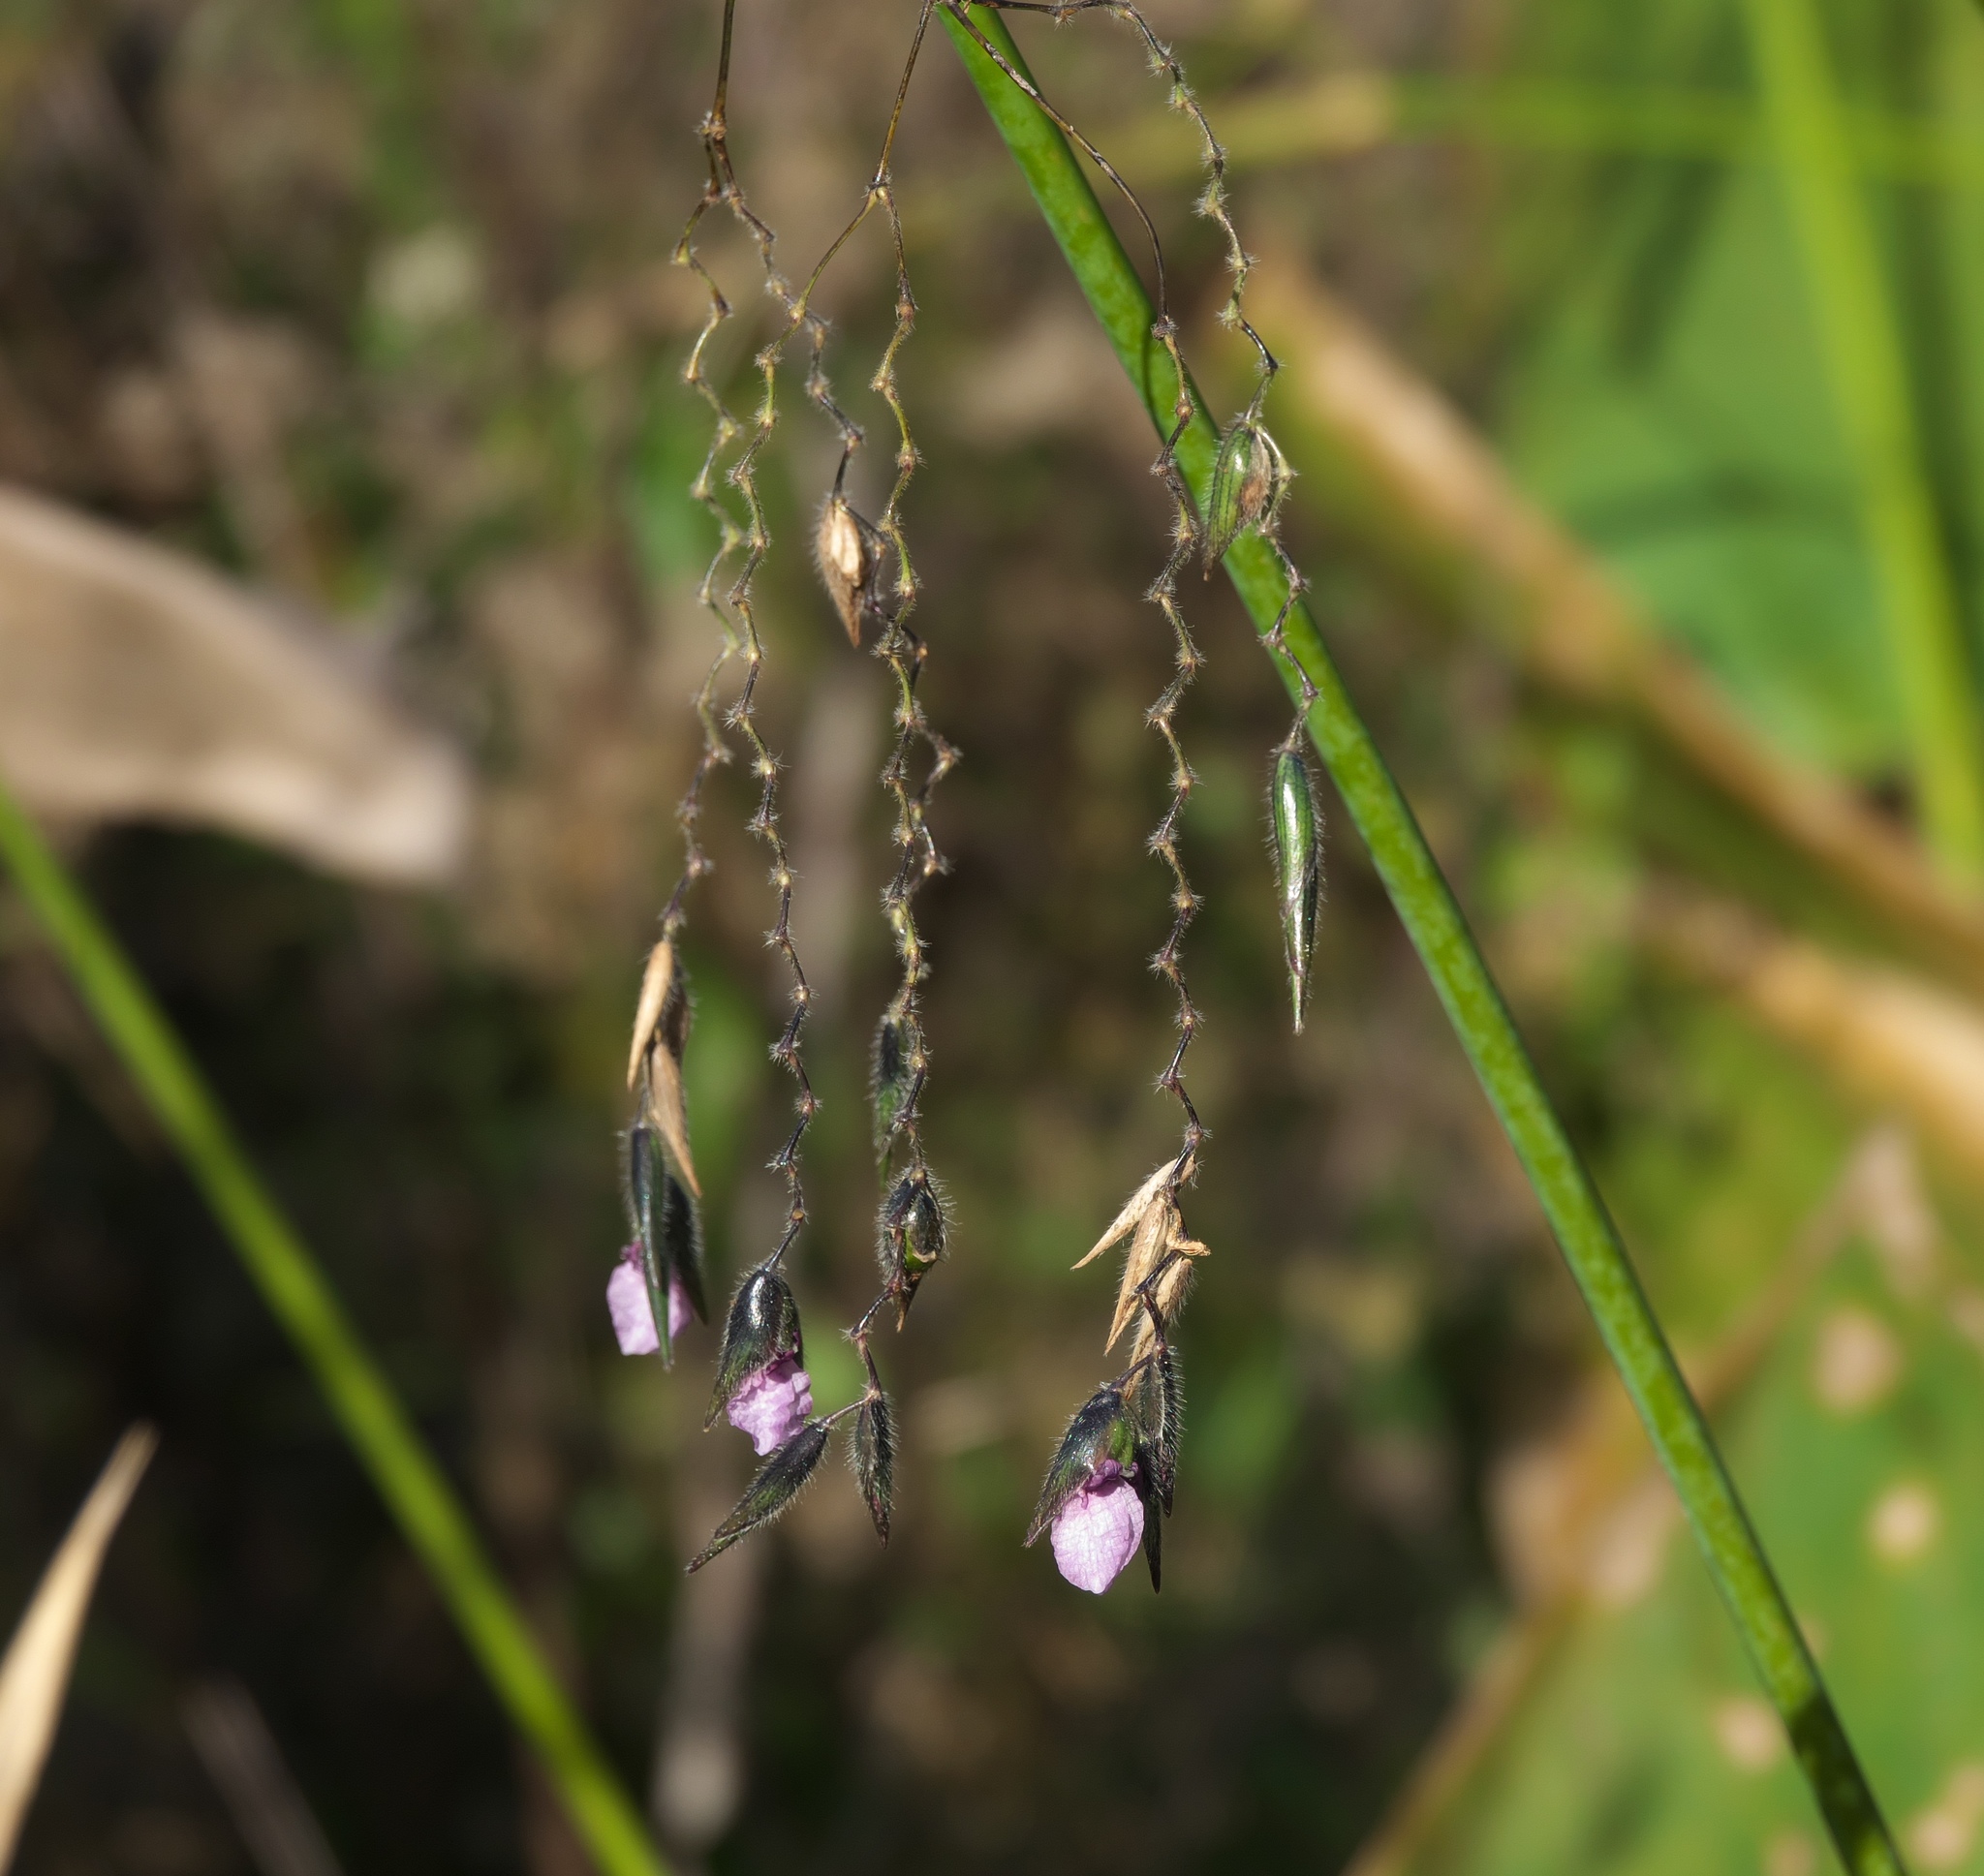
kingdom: Plantae
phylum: Tracheophyta
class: Liliopsida
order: Zingiberales
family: Marantaceae
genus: Thalia
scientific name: Thalia geniculata
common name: Arrowroot
